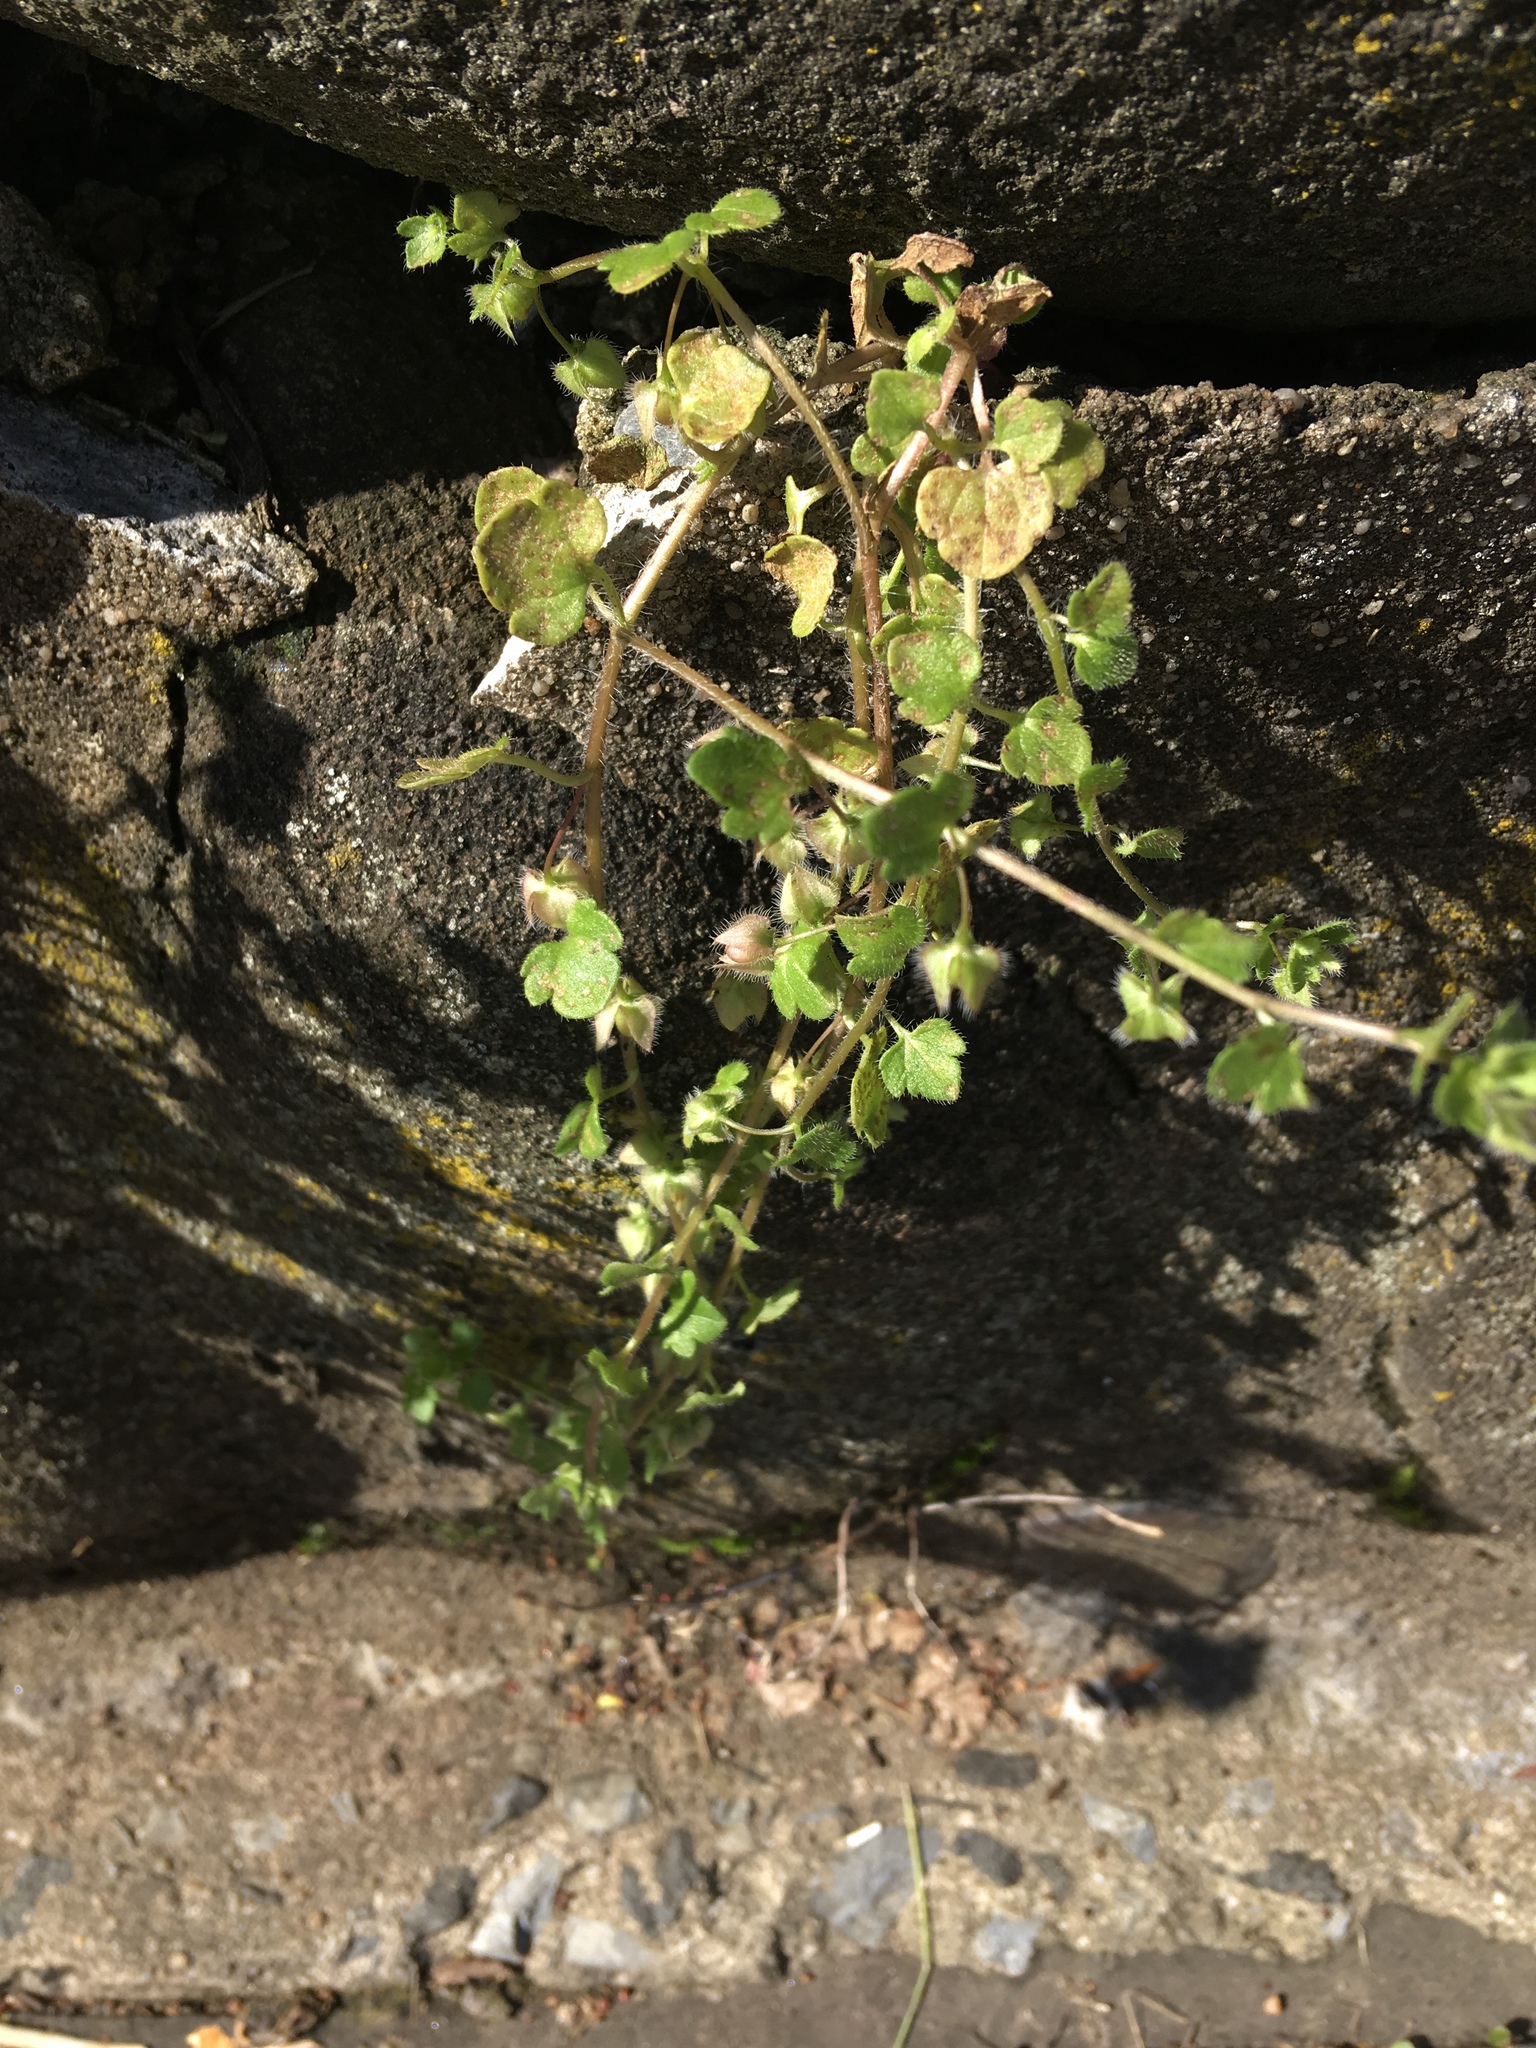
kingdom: Plantae
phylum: Tracheophyta
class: Magnoliopsida
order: Lamiales
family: Plantaginaceae
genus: Veronica
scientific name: Veronica hederifolia
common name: Ivy-leaved speedwell
